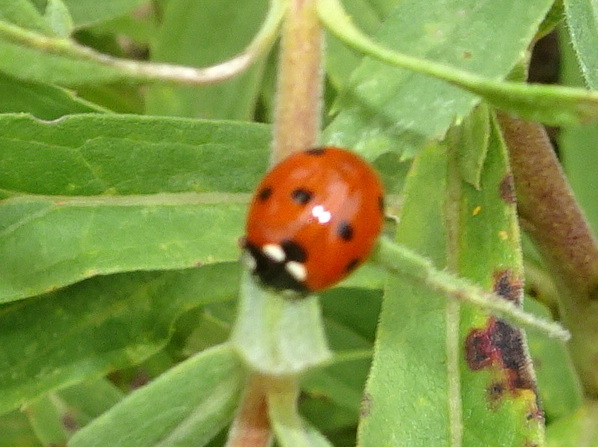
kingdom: Animalia
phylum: Arthropoda
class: Insecta
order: Coleoptera
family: Coccinellidae
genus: Coccinella
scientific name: Coccinella septempunctata
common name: Sevenspotted lady beetle
